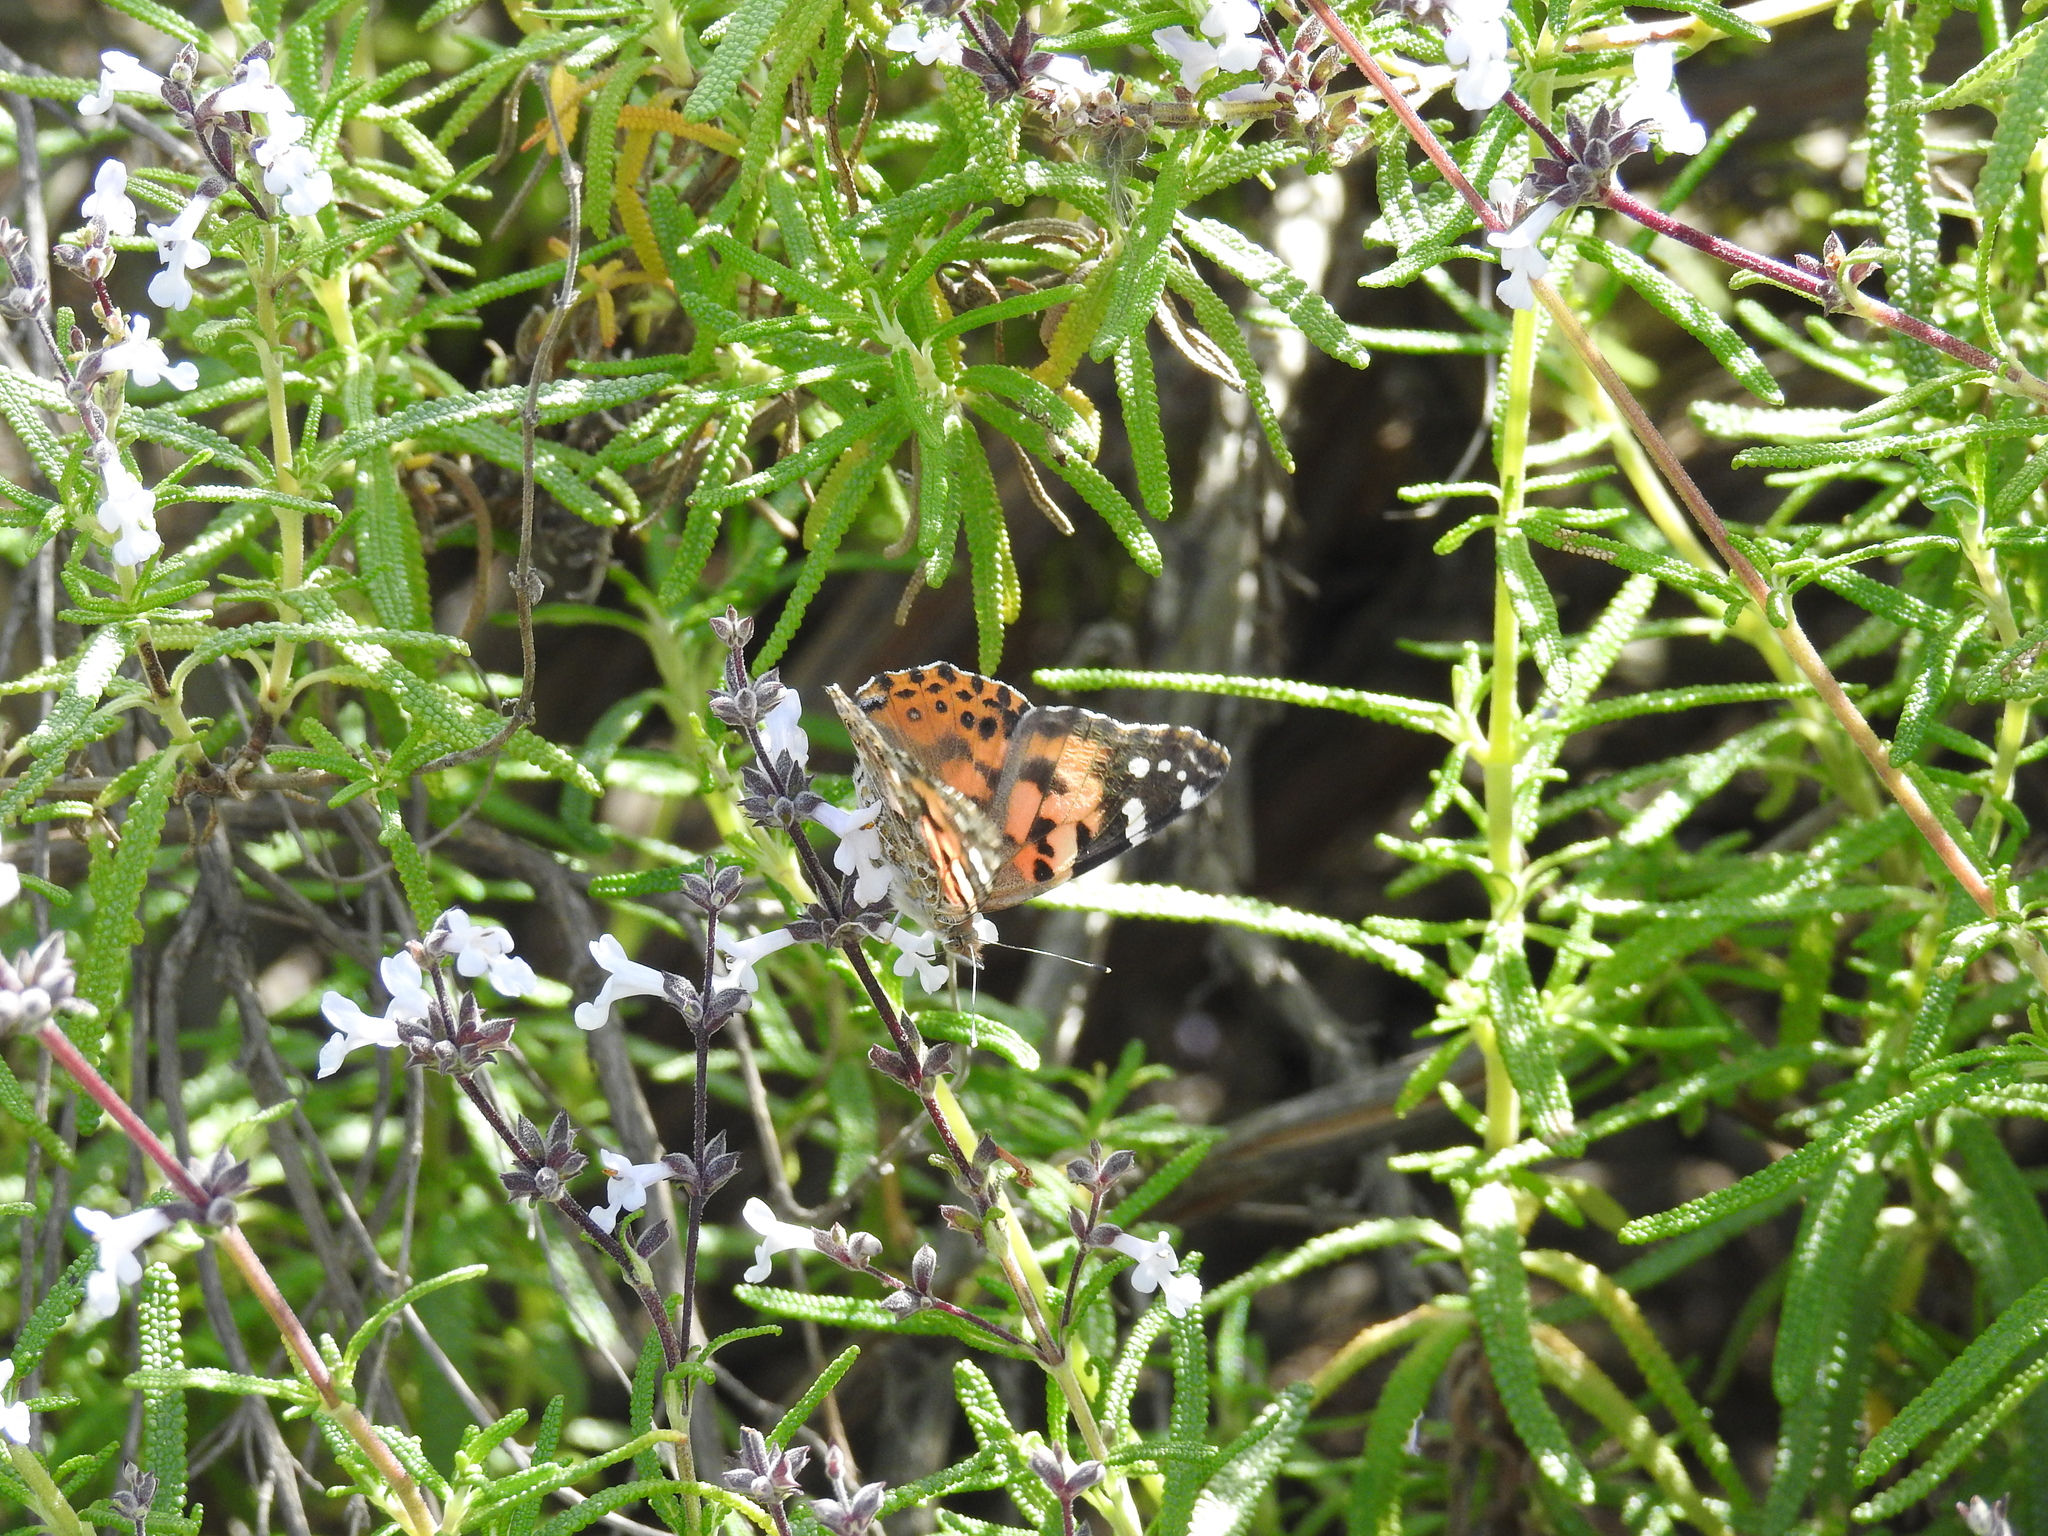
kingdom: Animalia
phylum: Arthropoda
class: Insecta
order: Lepidoptera
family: Nymphalidae
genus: Vanessa
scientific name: Vanessa cardui
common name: Painted lady
